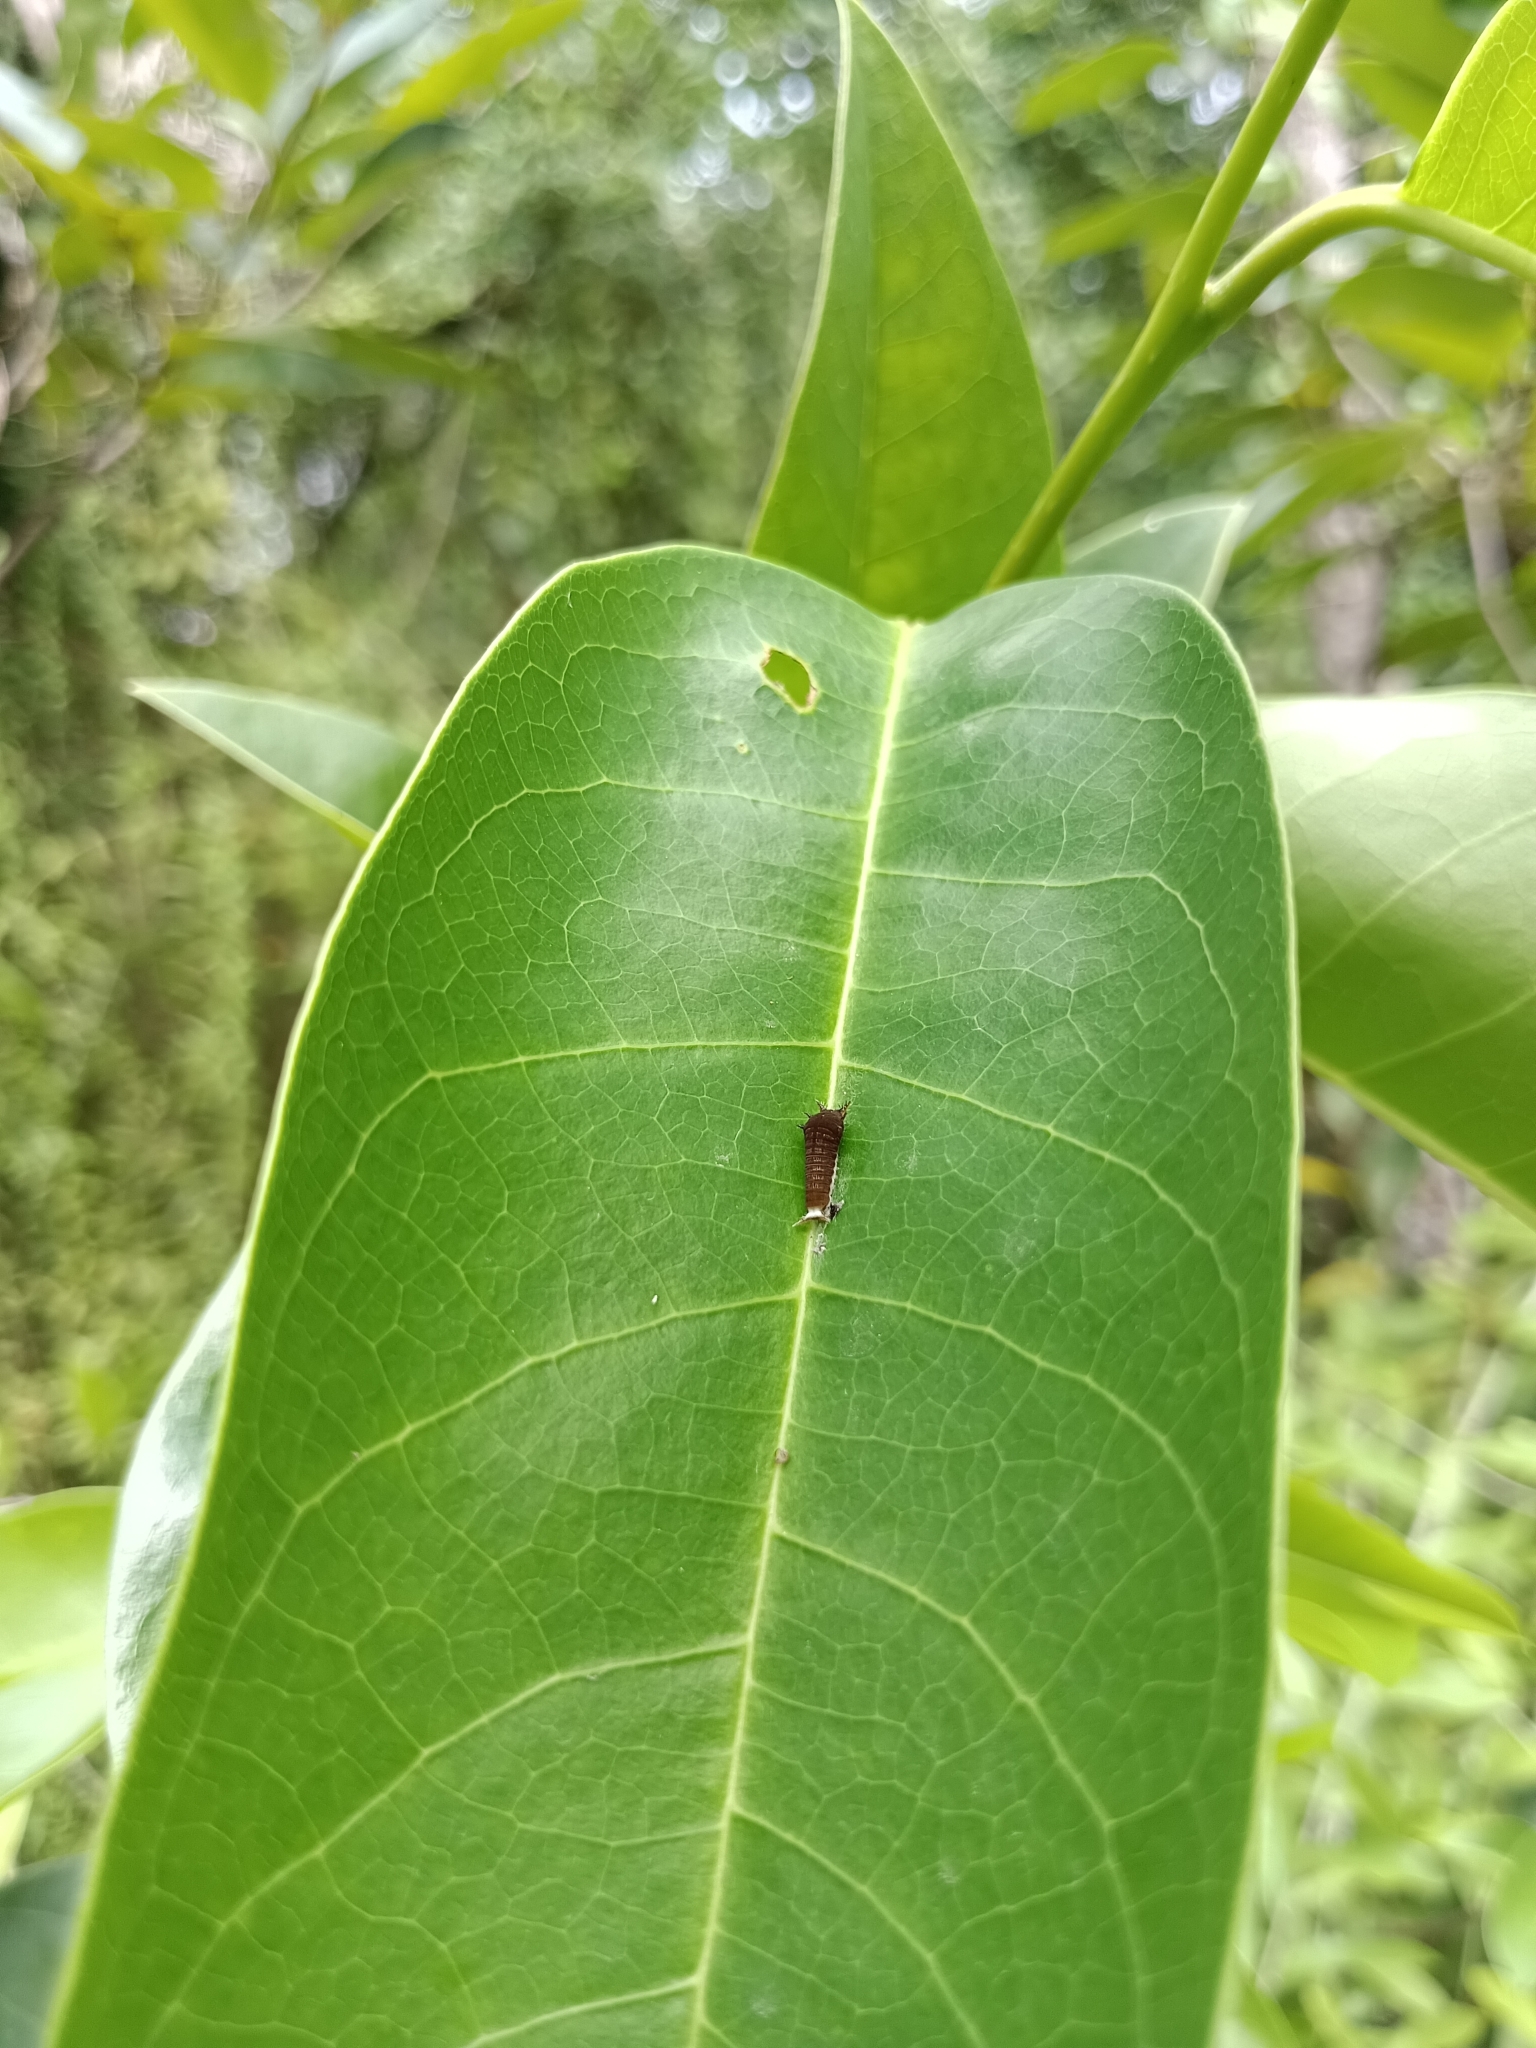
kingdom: Animalia
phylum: Arthropoda
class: Insecta
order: Lepidoptera
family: Papilionidae
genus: Graphium
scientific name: Graphium doson
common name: Common jay
